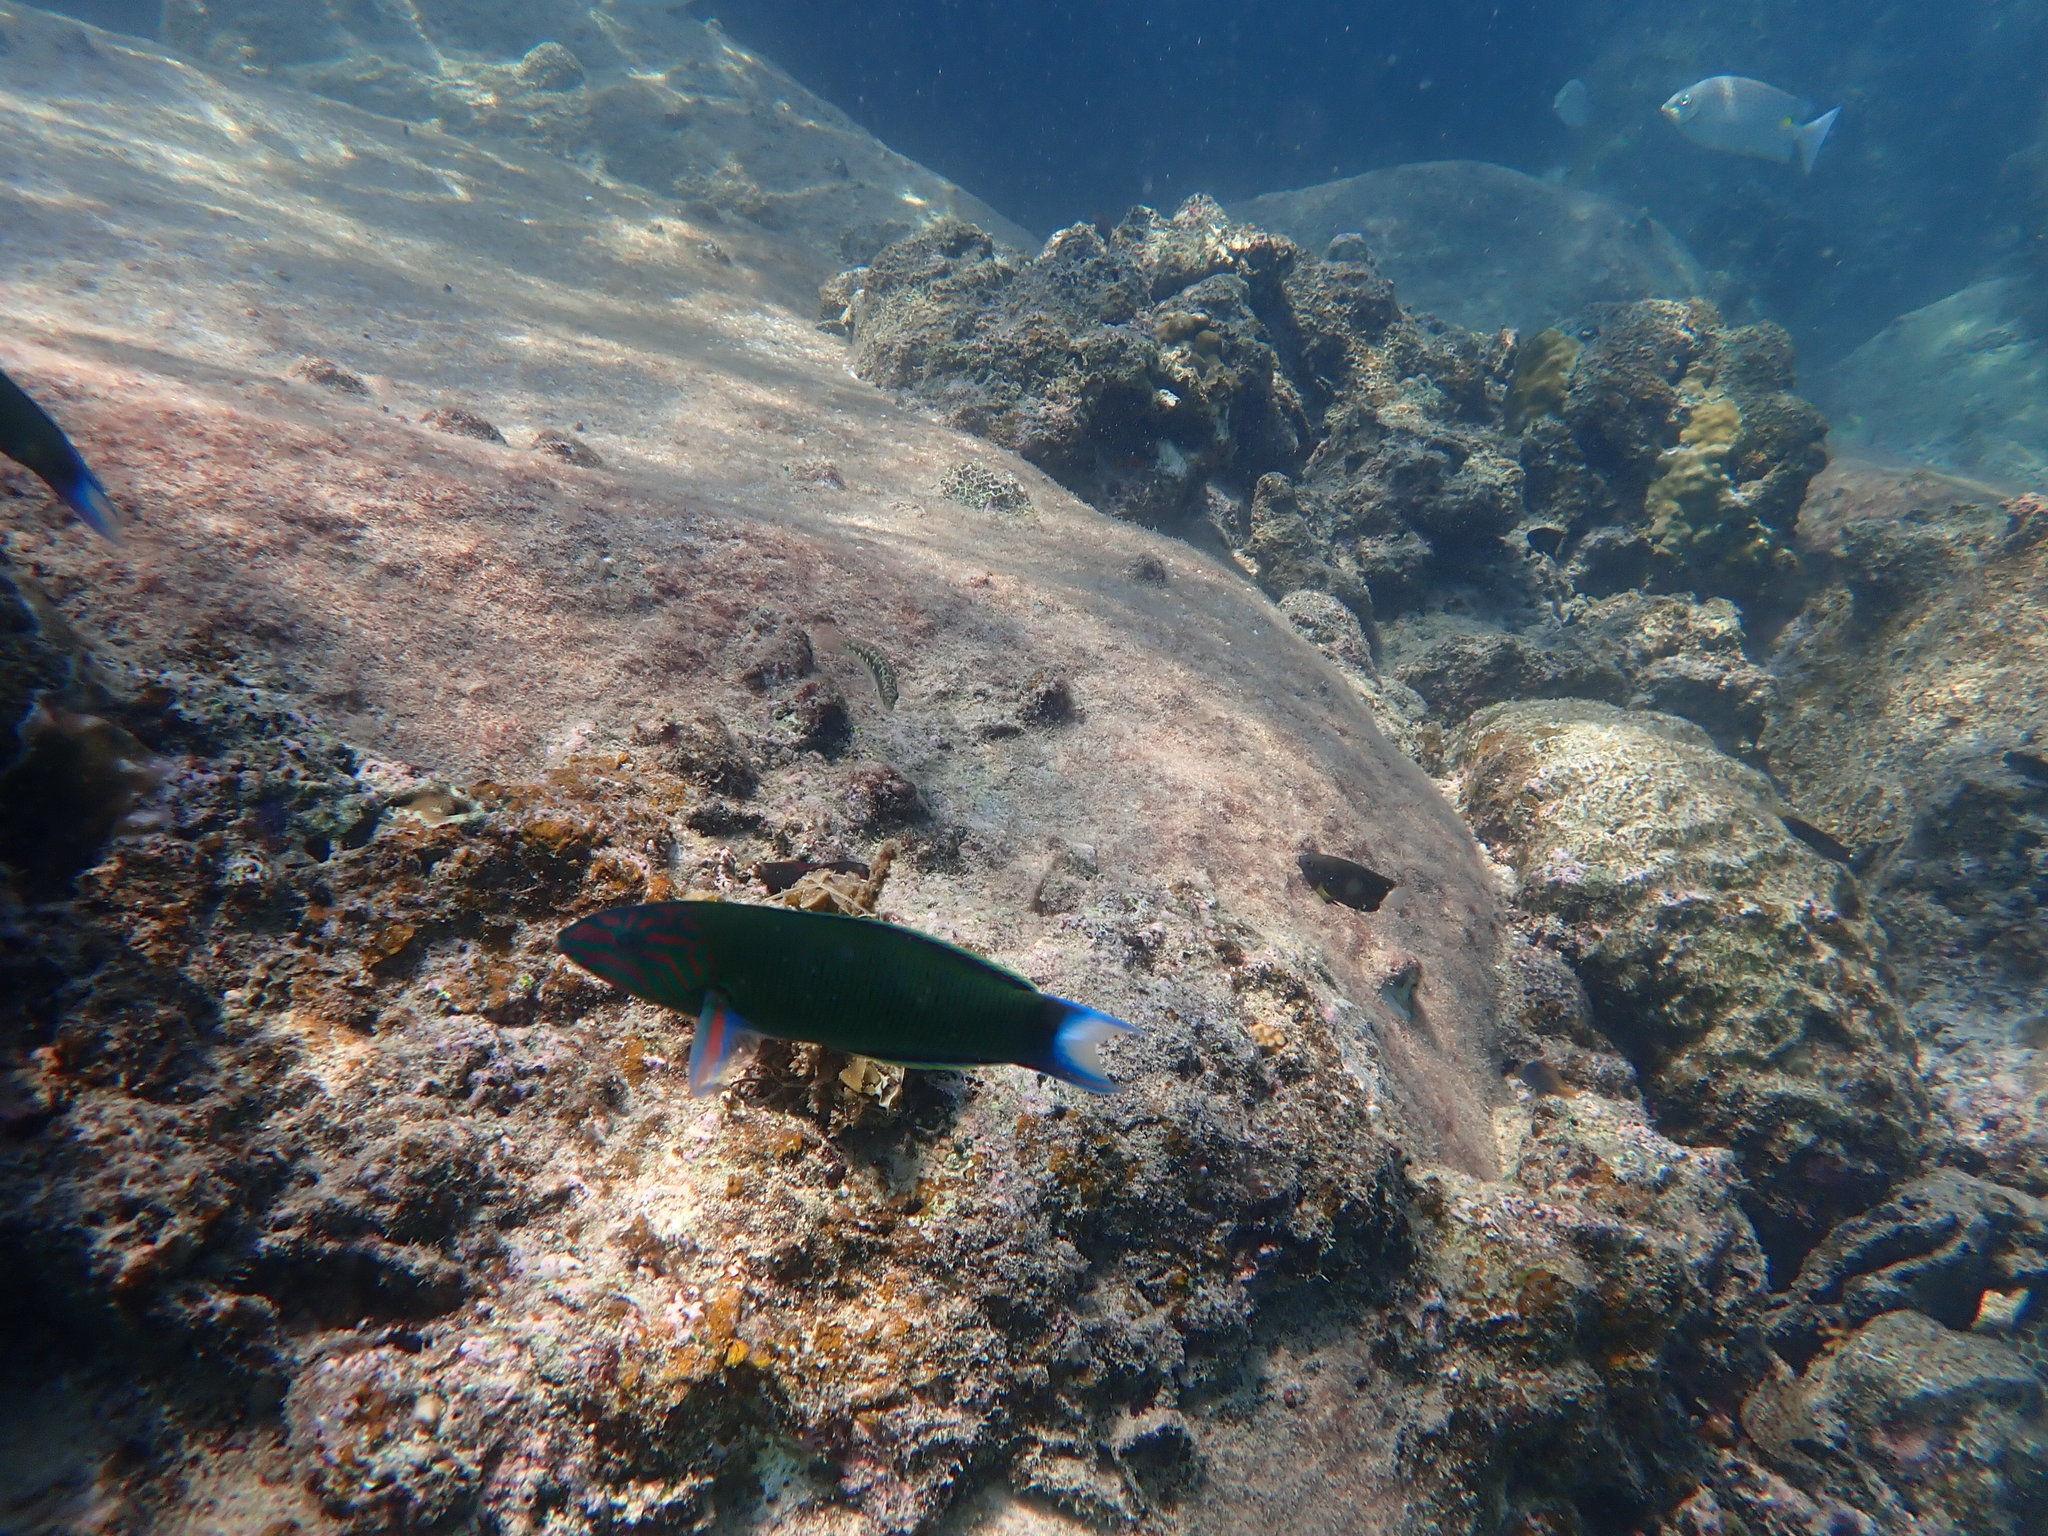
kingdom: Animalia
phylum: Chordata
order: Perciformes
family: Labridae
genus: Thalassoma
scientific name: Thalassoma lunare
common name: Blue wrasse
